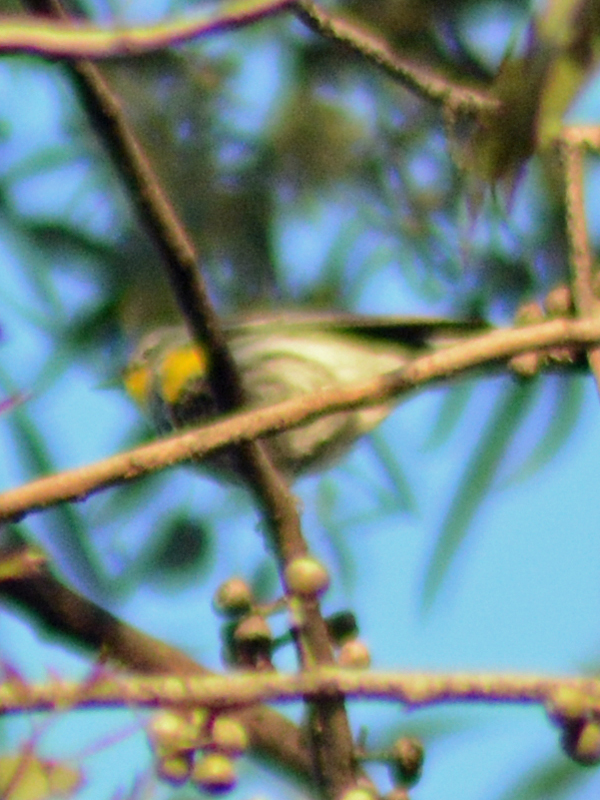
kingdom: Animalia
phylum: Chordata
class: Aves
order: Passeriformes
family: Parulidae
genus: Setophaga
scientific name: Setophaga coronata
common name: Myrtle warbler
